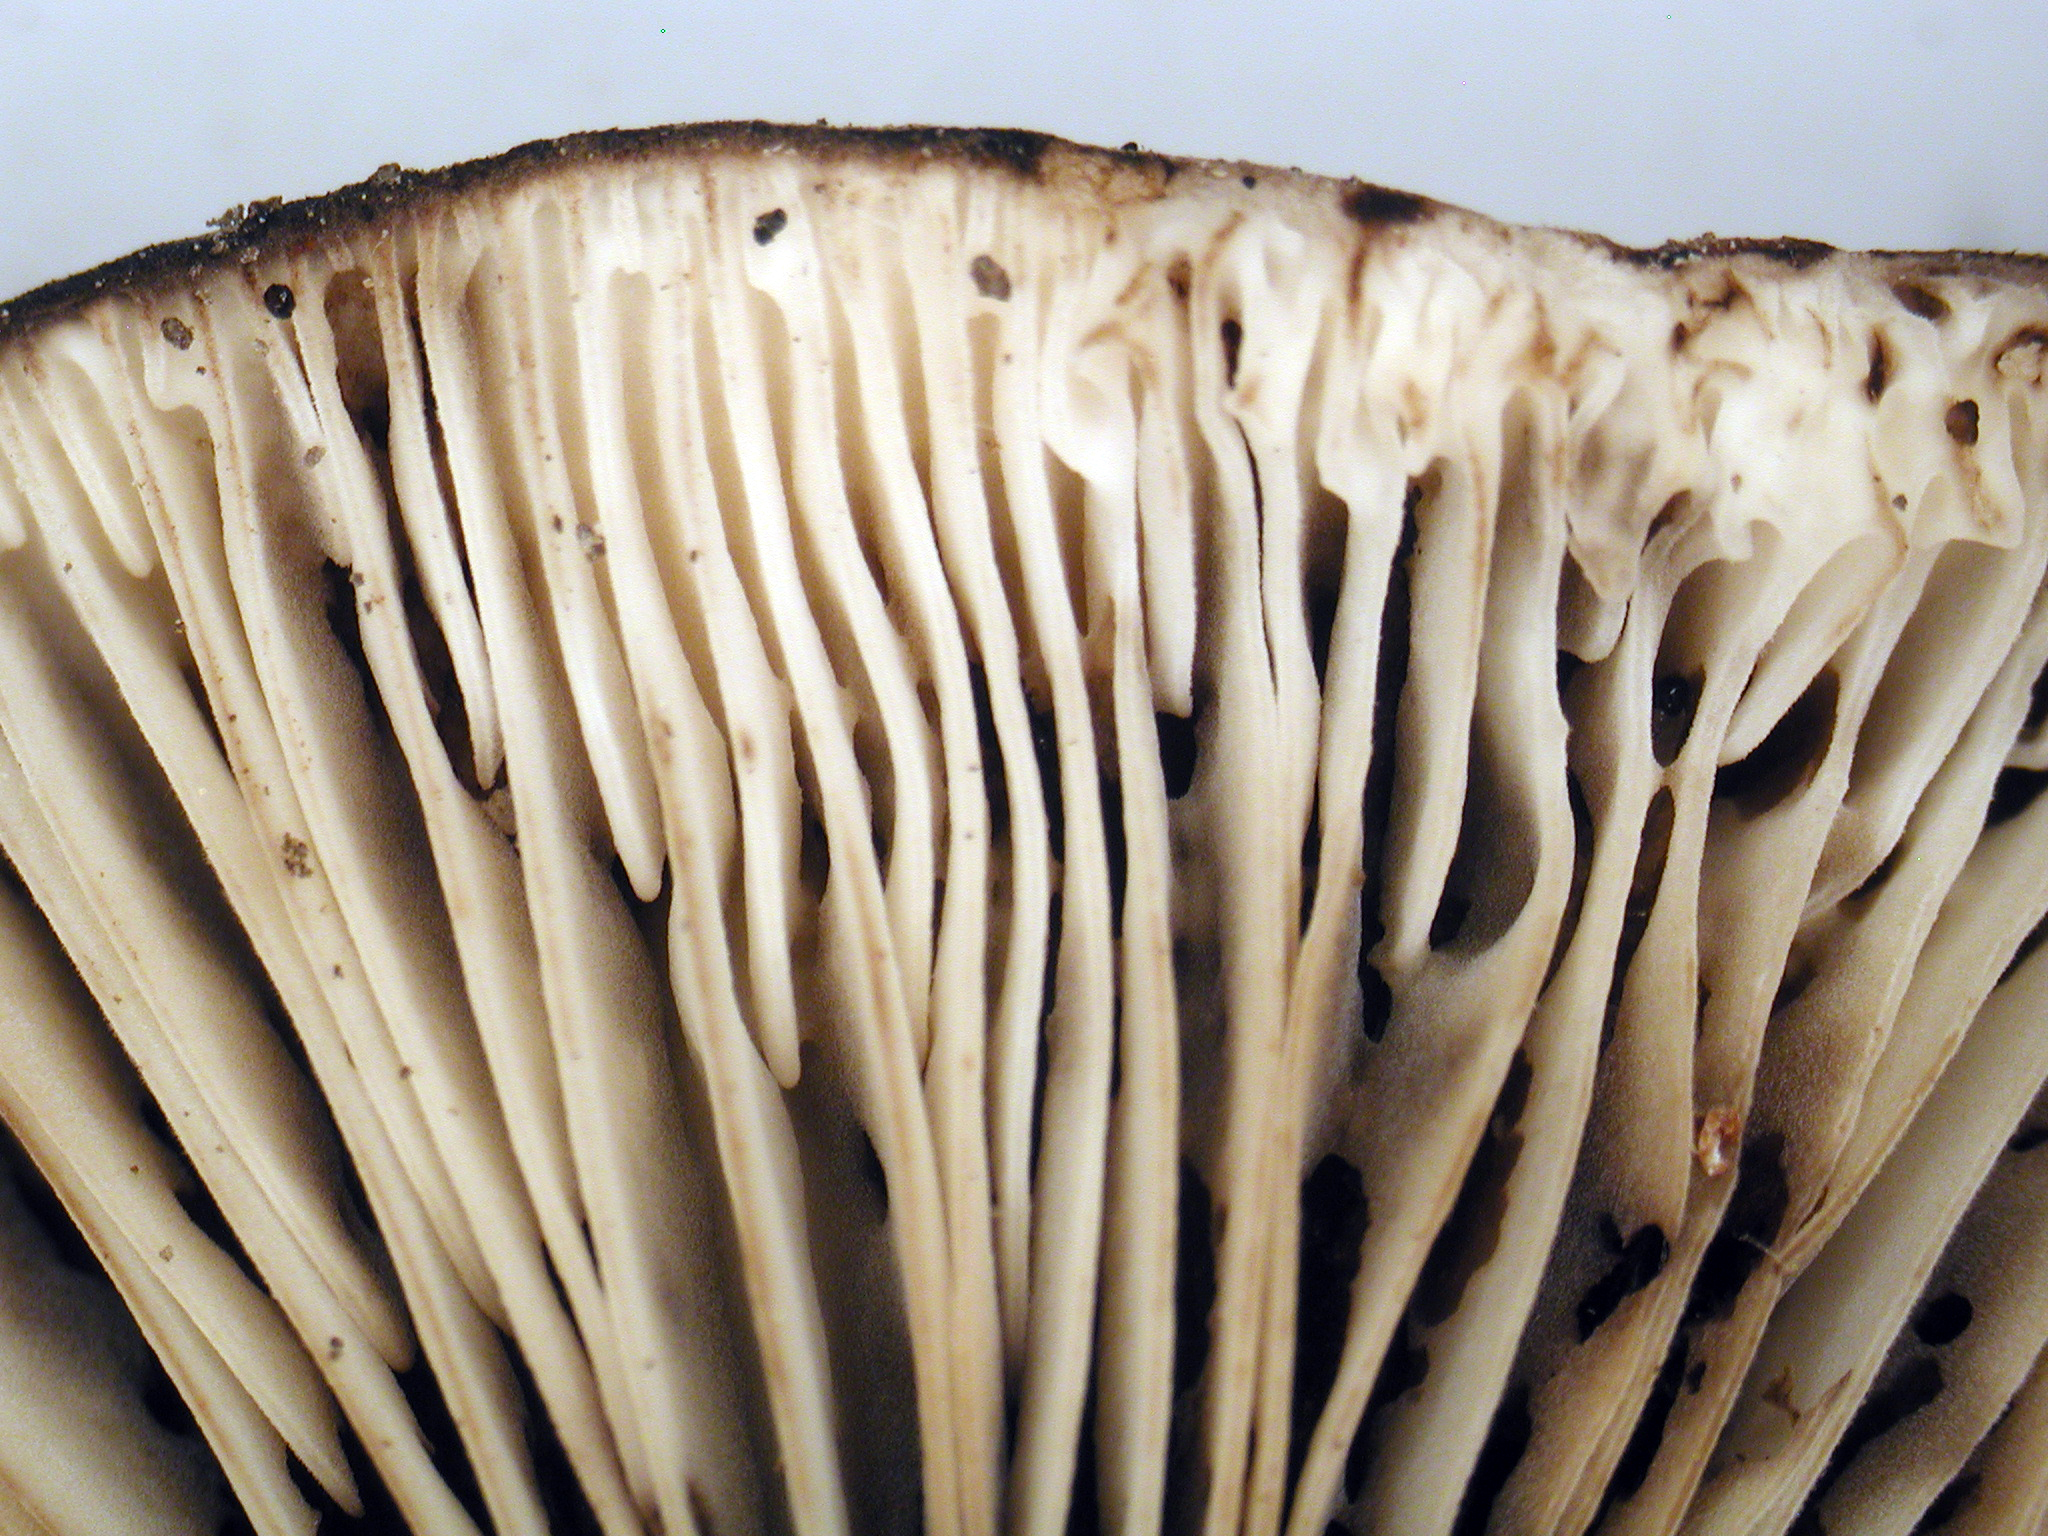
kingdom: Fungi
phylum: Basidiomycota
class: Agaricomycetes
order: Russulales
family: Russulaceae
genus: Russula
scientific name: Russula inquinata
